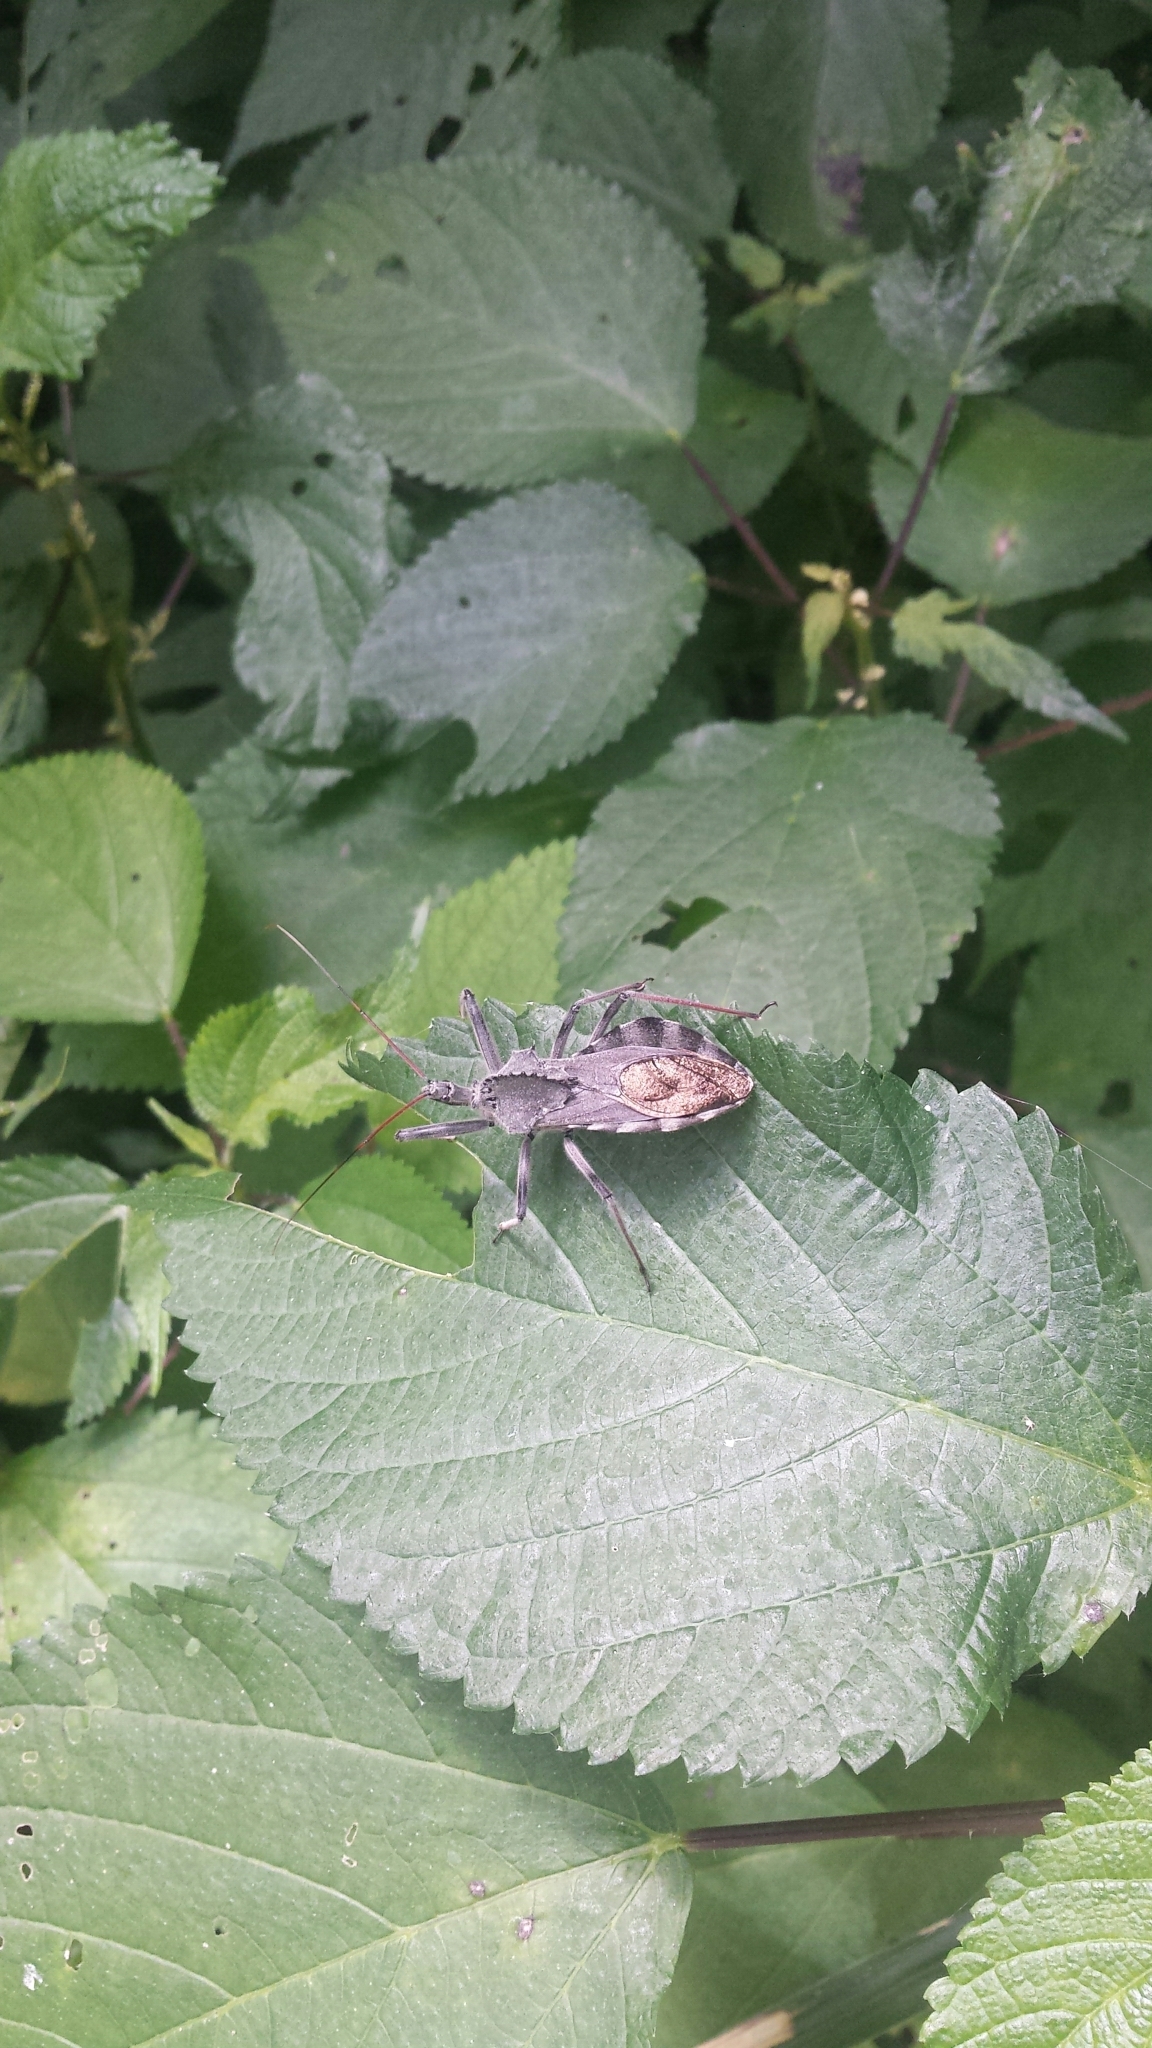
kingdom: Animalia
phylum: Arthropoda
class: Insecta
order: Hemiptera
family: Reduviidae
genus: Arilus
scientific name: Arilus cristatus
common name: North american wheel bug
